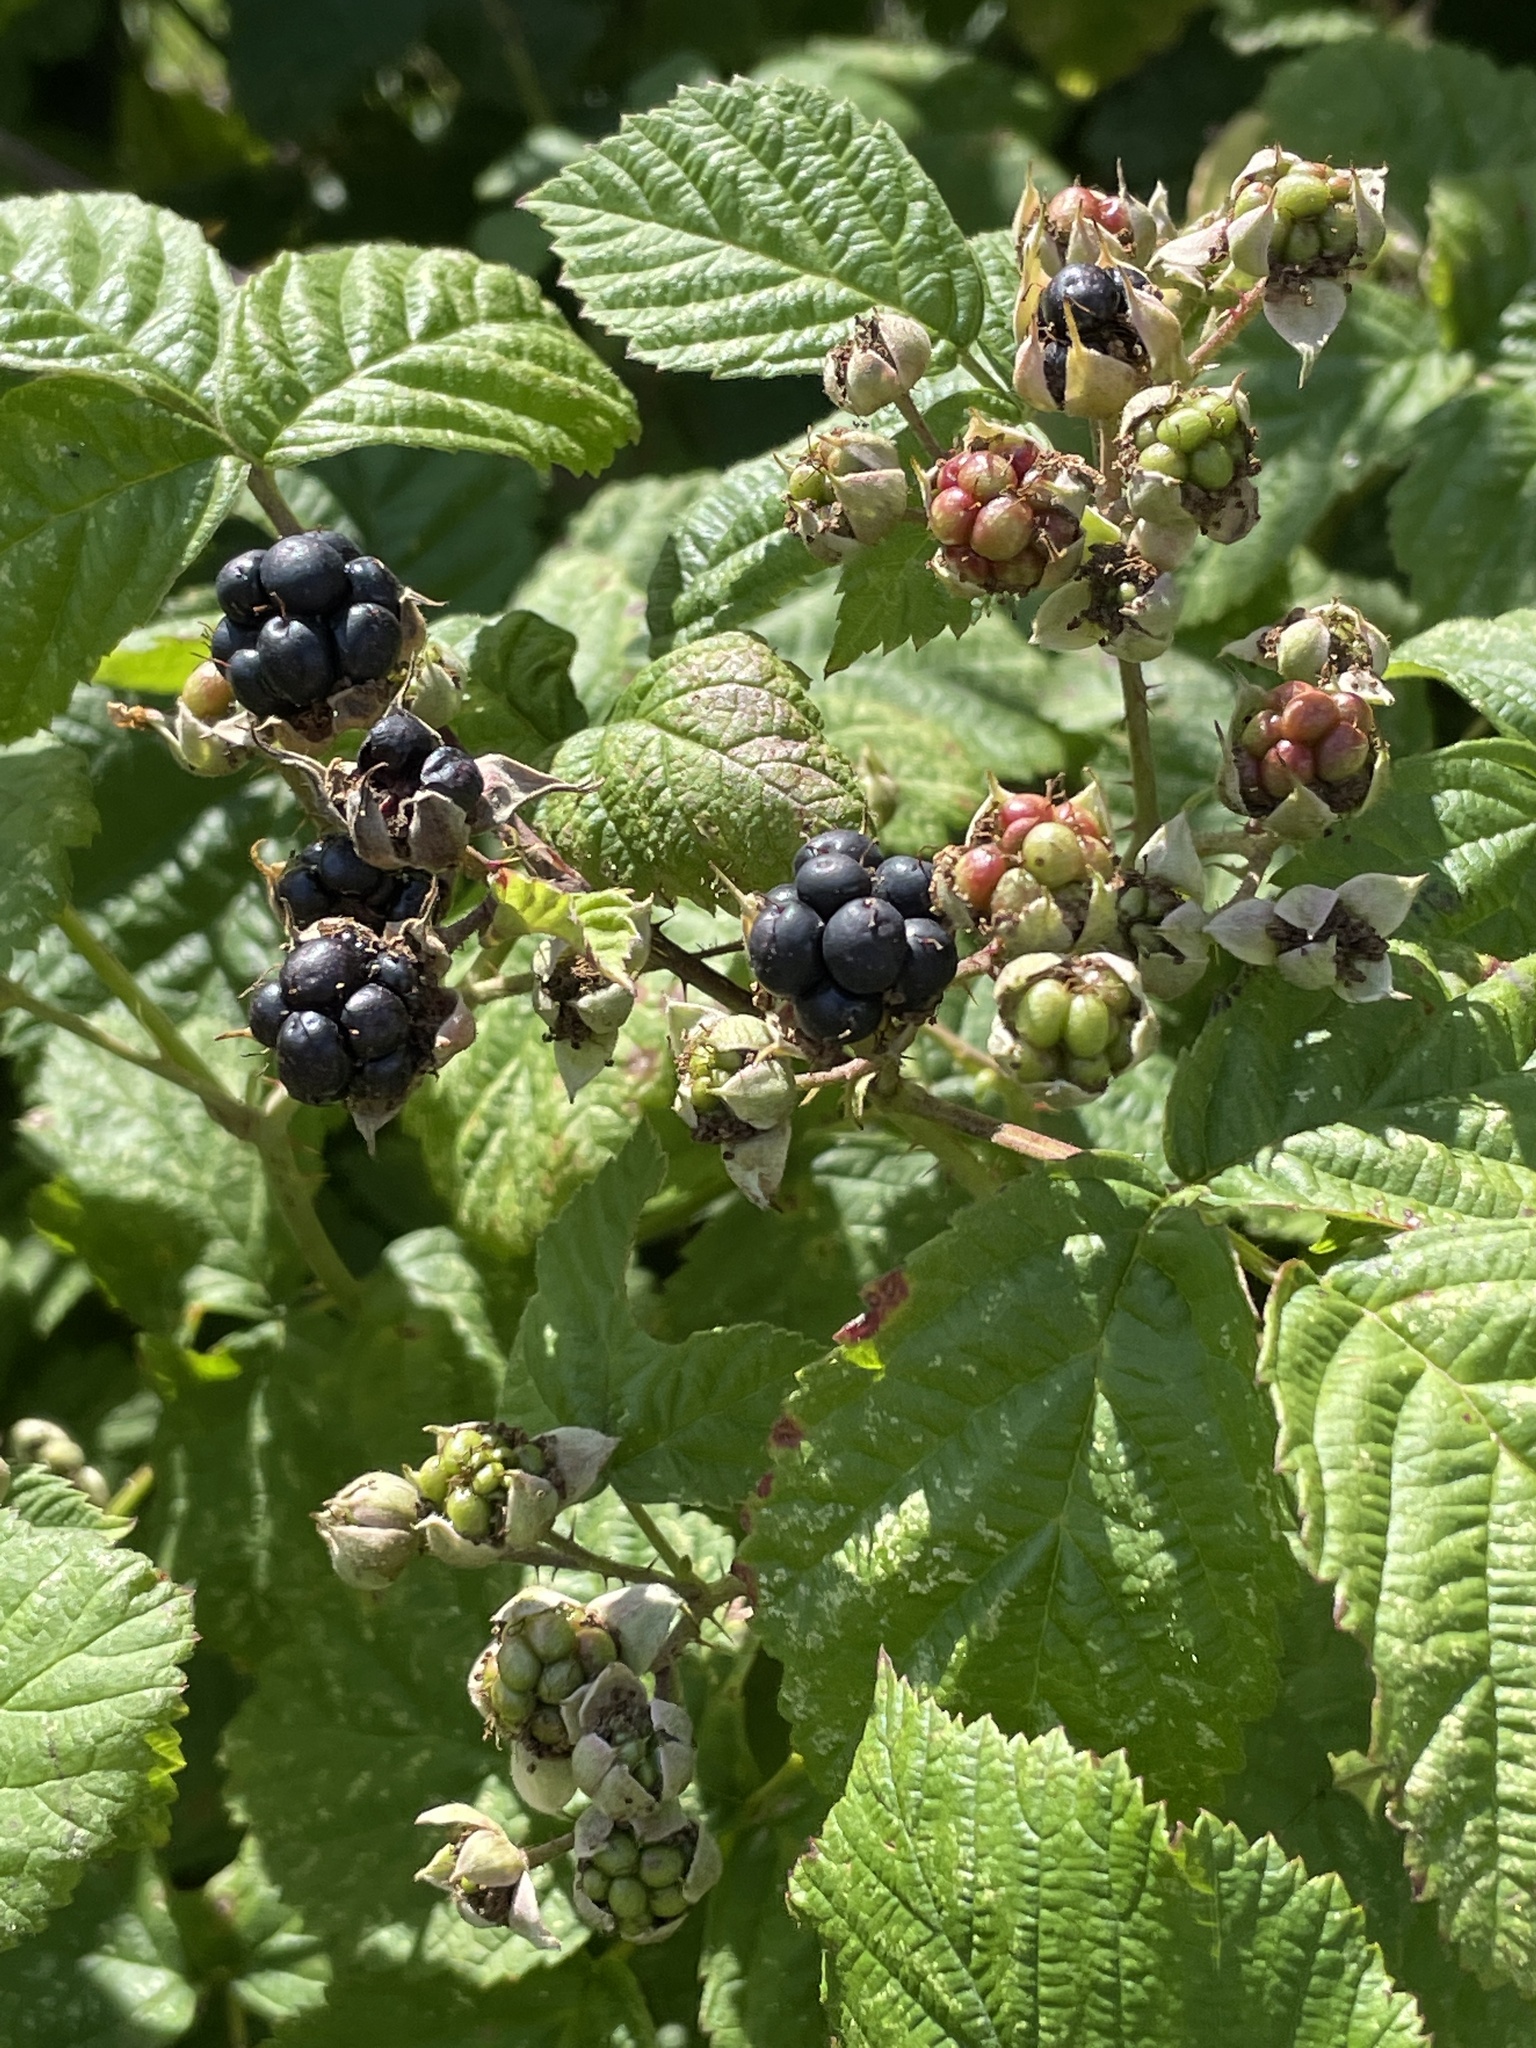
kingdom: Plantae
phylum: Tracheophyta
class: Magnoliopsida
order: Rosales
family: Rosaceae
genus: Rubus
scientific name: Rubus caesius
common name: Dewberry
